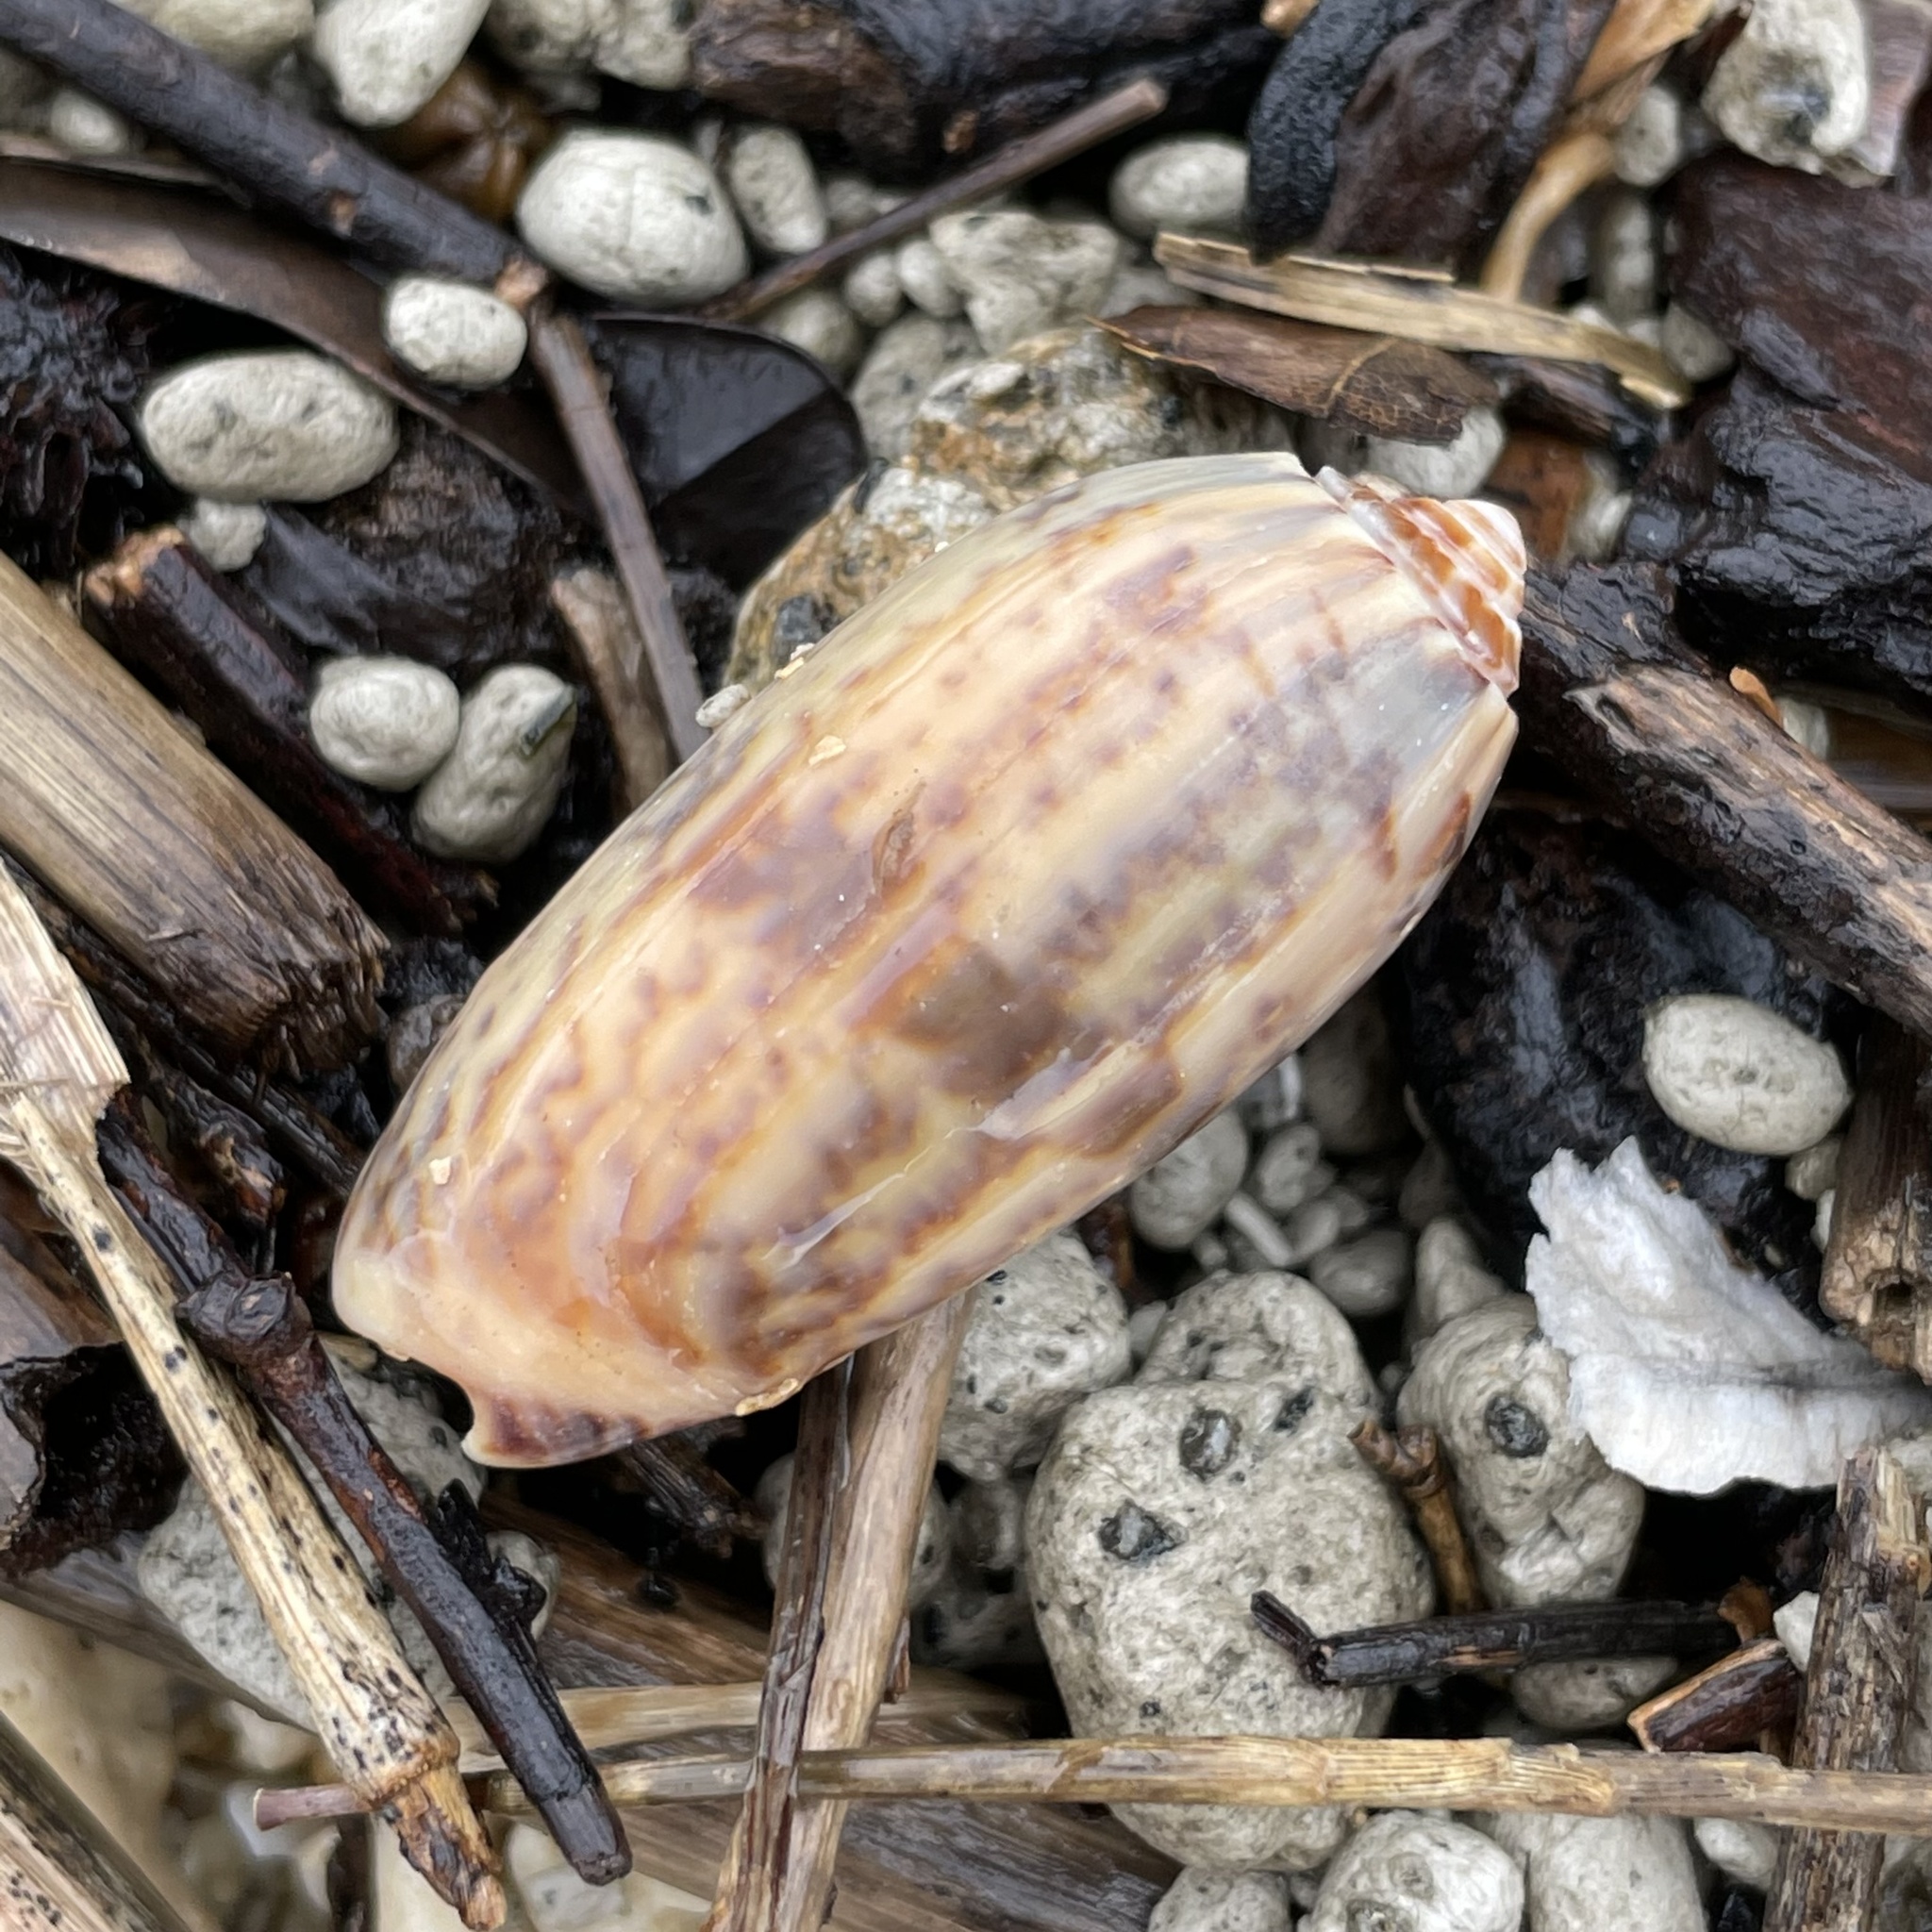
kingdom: Animalia
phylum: Mollusca
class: Gastropoda
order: Neogastropoda
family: Olividae
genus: Oliva
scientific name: Oliva miniacea
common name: Pacific common olive
